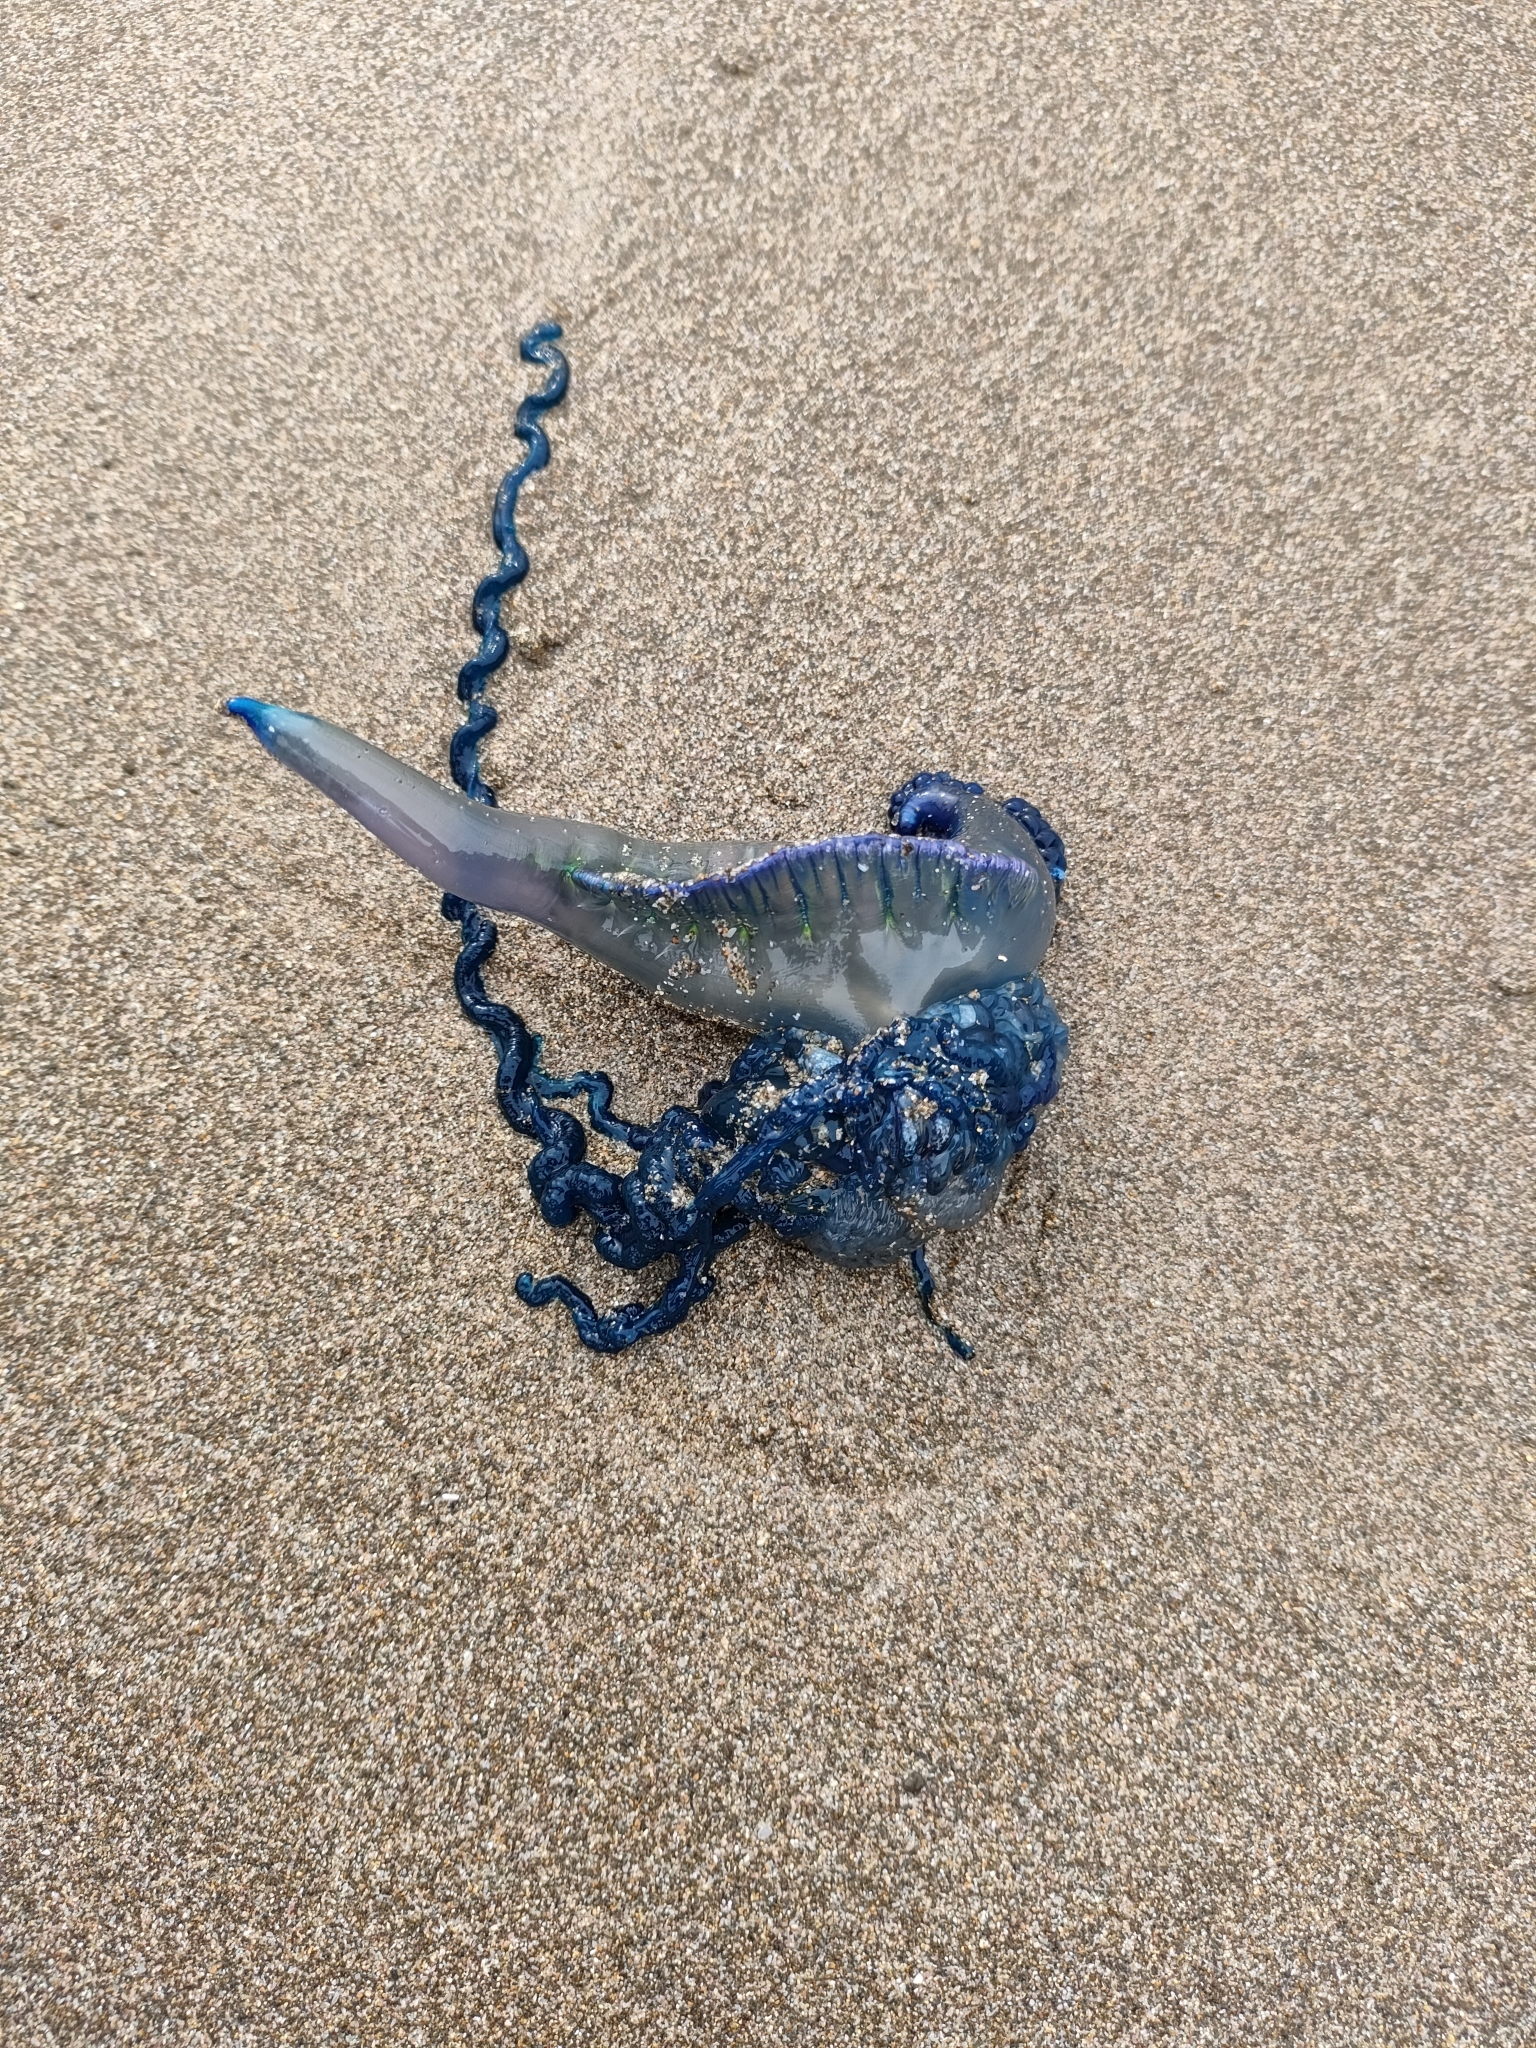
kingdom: Animalia
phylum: Cnidaria
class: Hydrozoa
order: Siphonophorae
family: Physaliidae
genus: Physalia
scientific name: Physalia physalis
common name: Portuguese man-of-war
